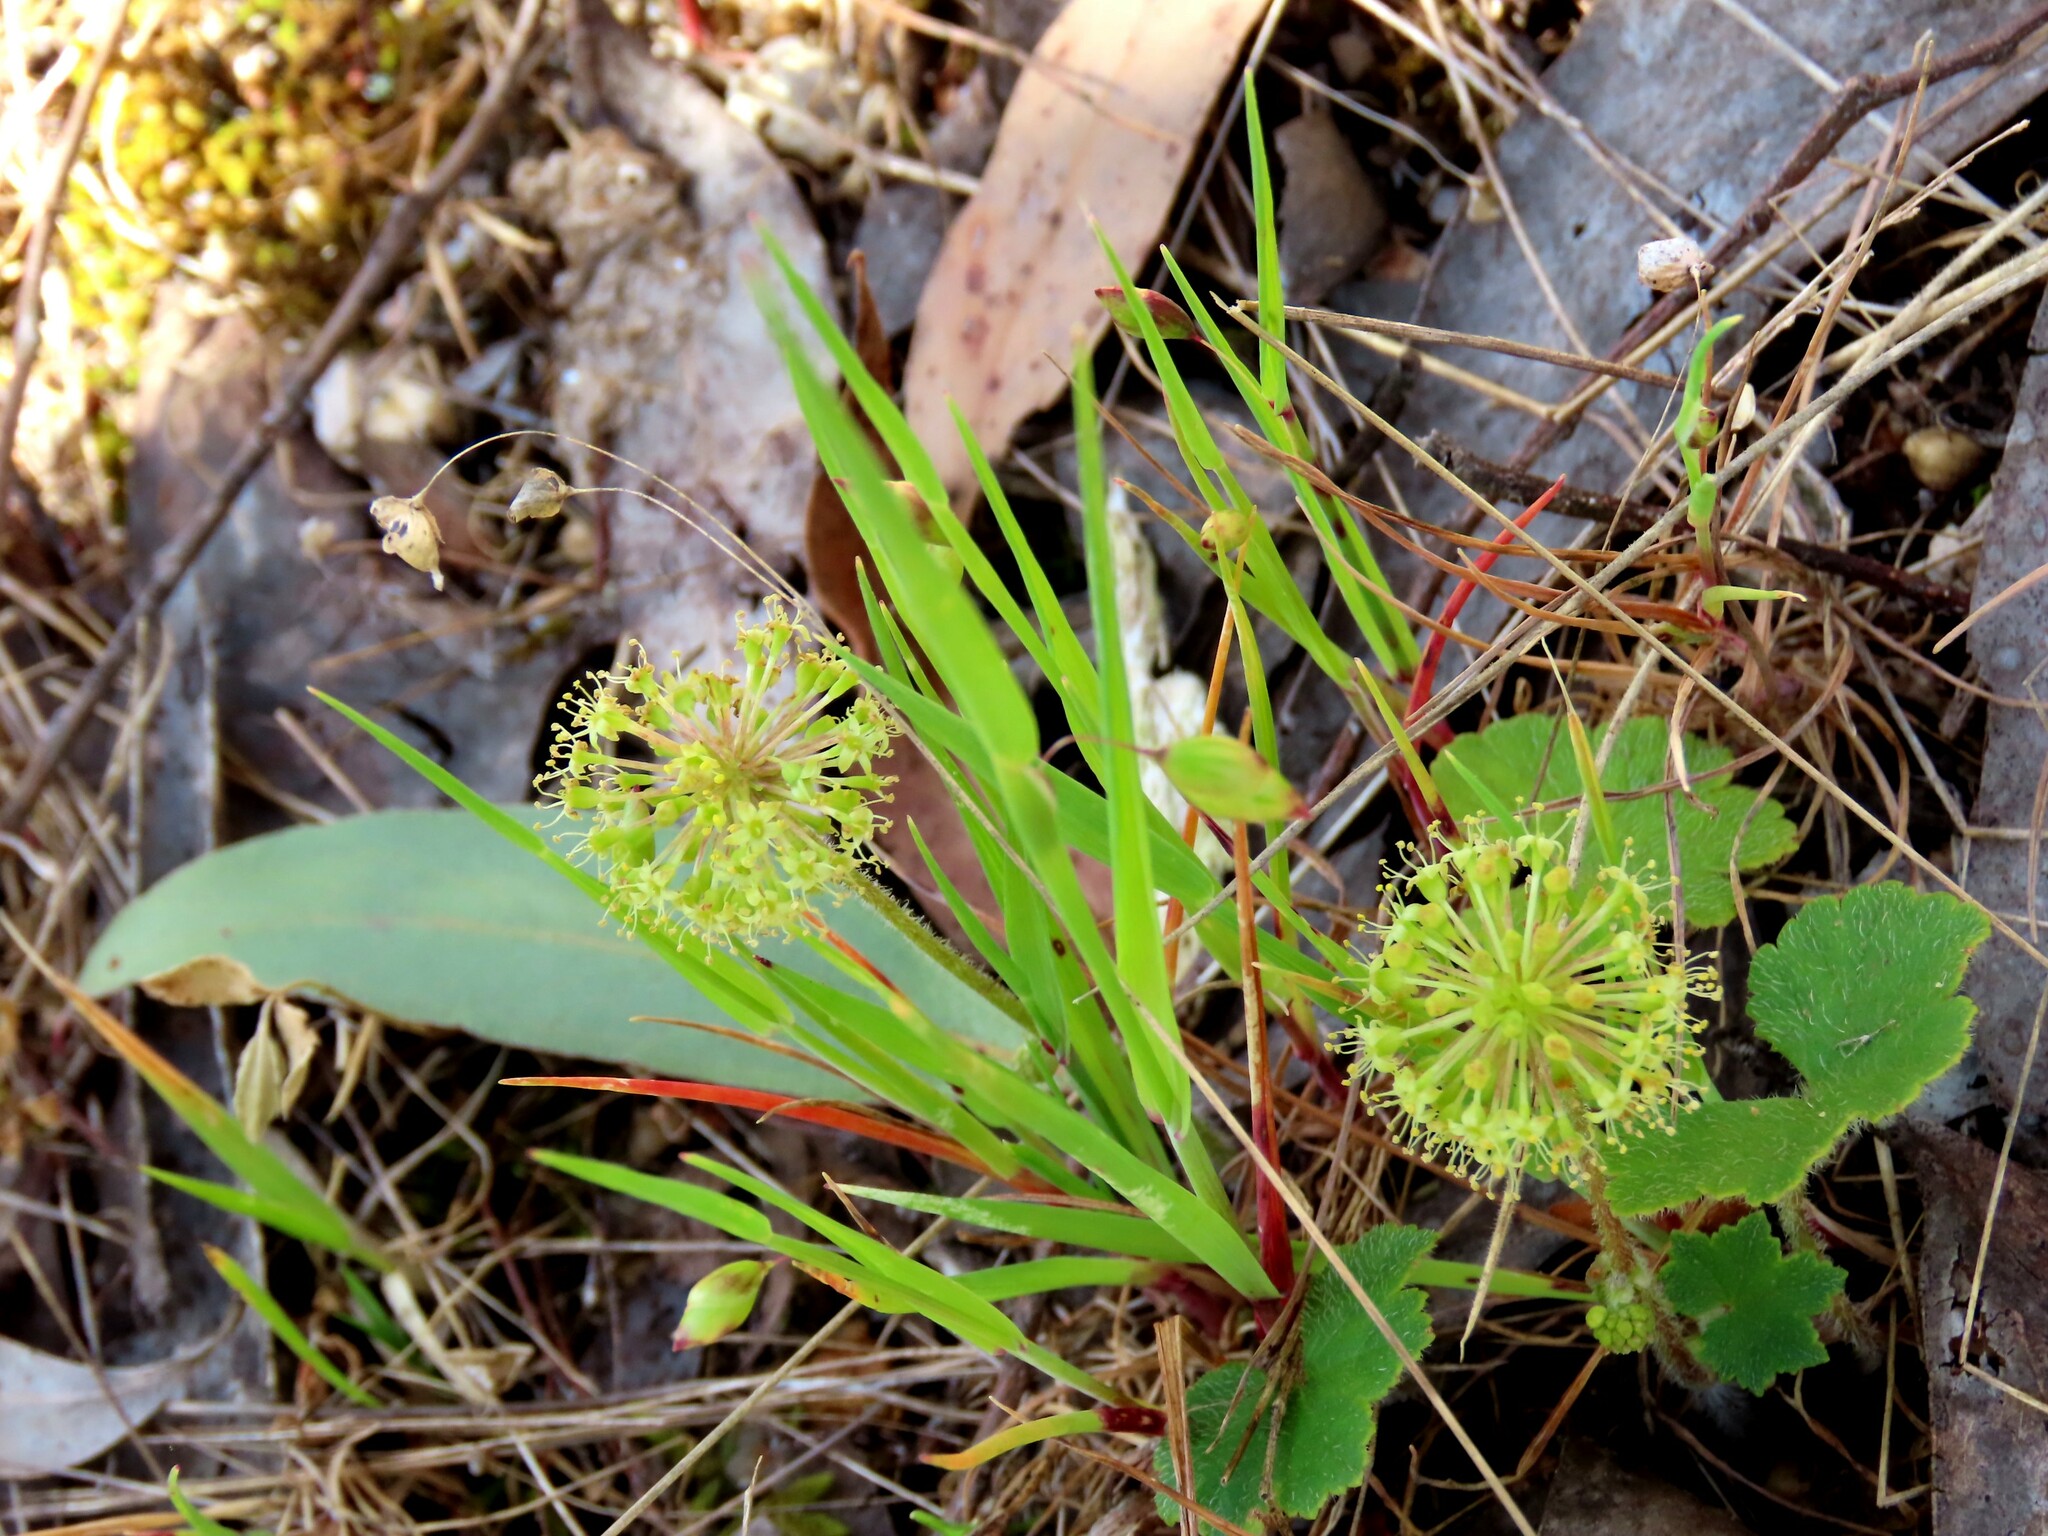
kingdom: Plantae
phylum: Tracheophyta
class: Magnoliopsida
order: Apiales
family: Araliaceae
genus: Hydrocotyle
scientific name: Hydrocotyle laxiflora
